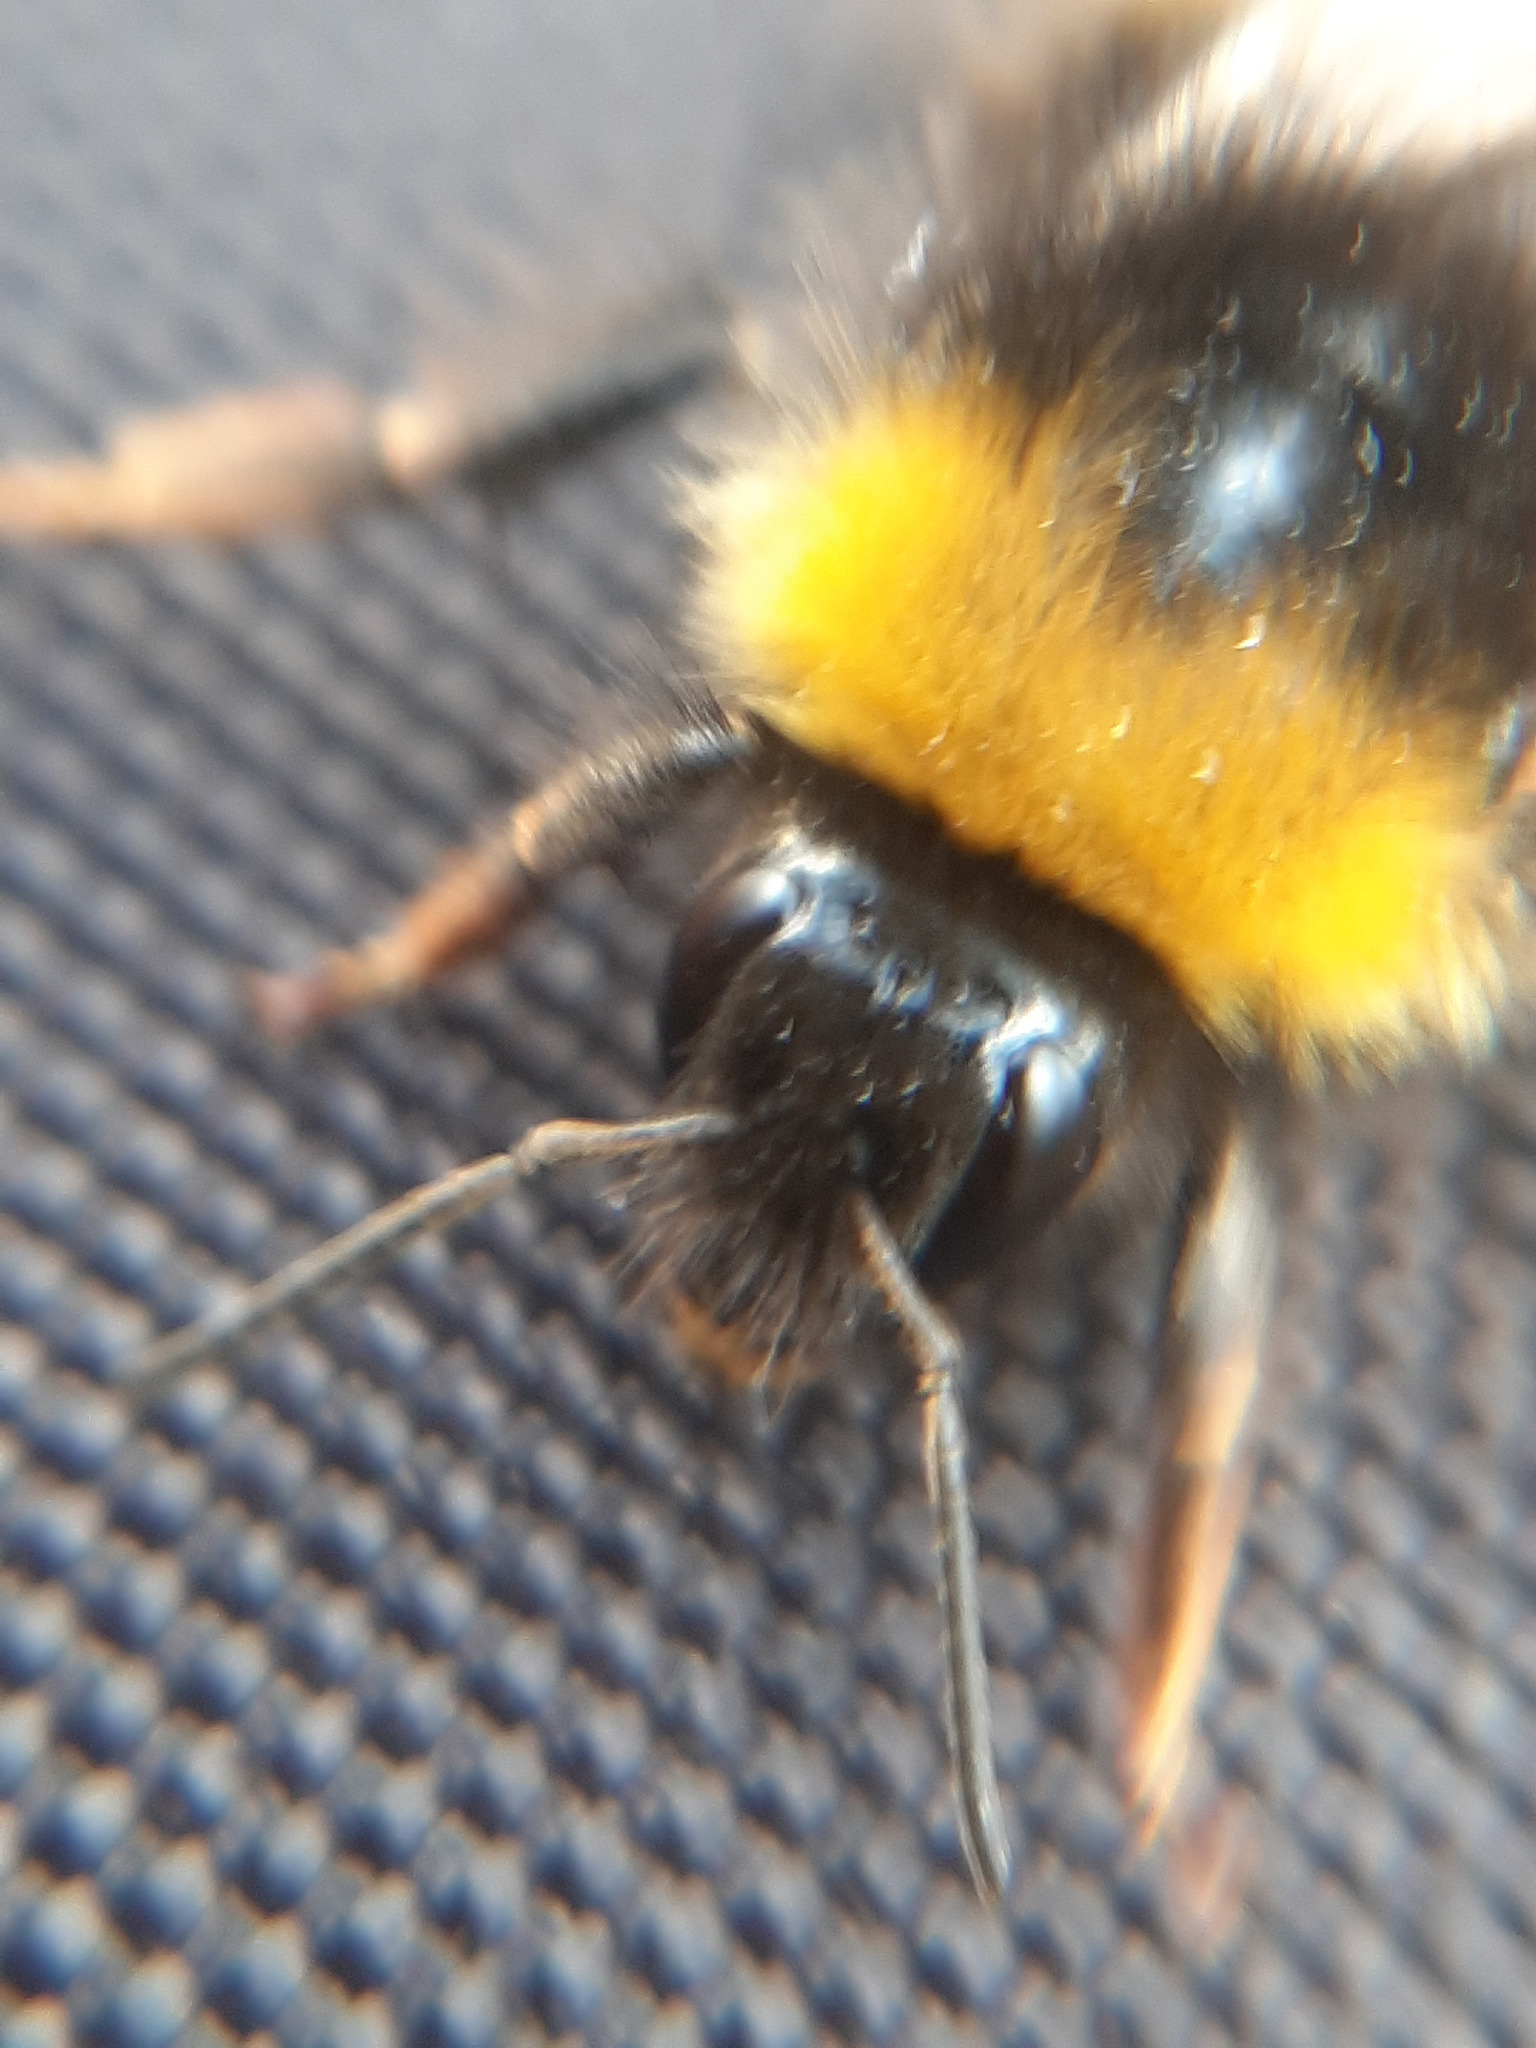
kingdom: Animalia
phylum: Arthropoda
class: Insecta
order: Hymenoptera
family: Apidae
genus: Bombus
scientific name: Bombus pratorum
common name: Early humble-bee
